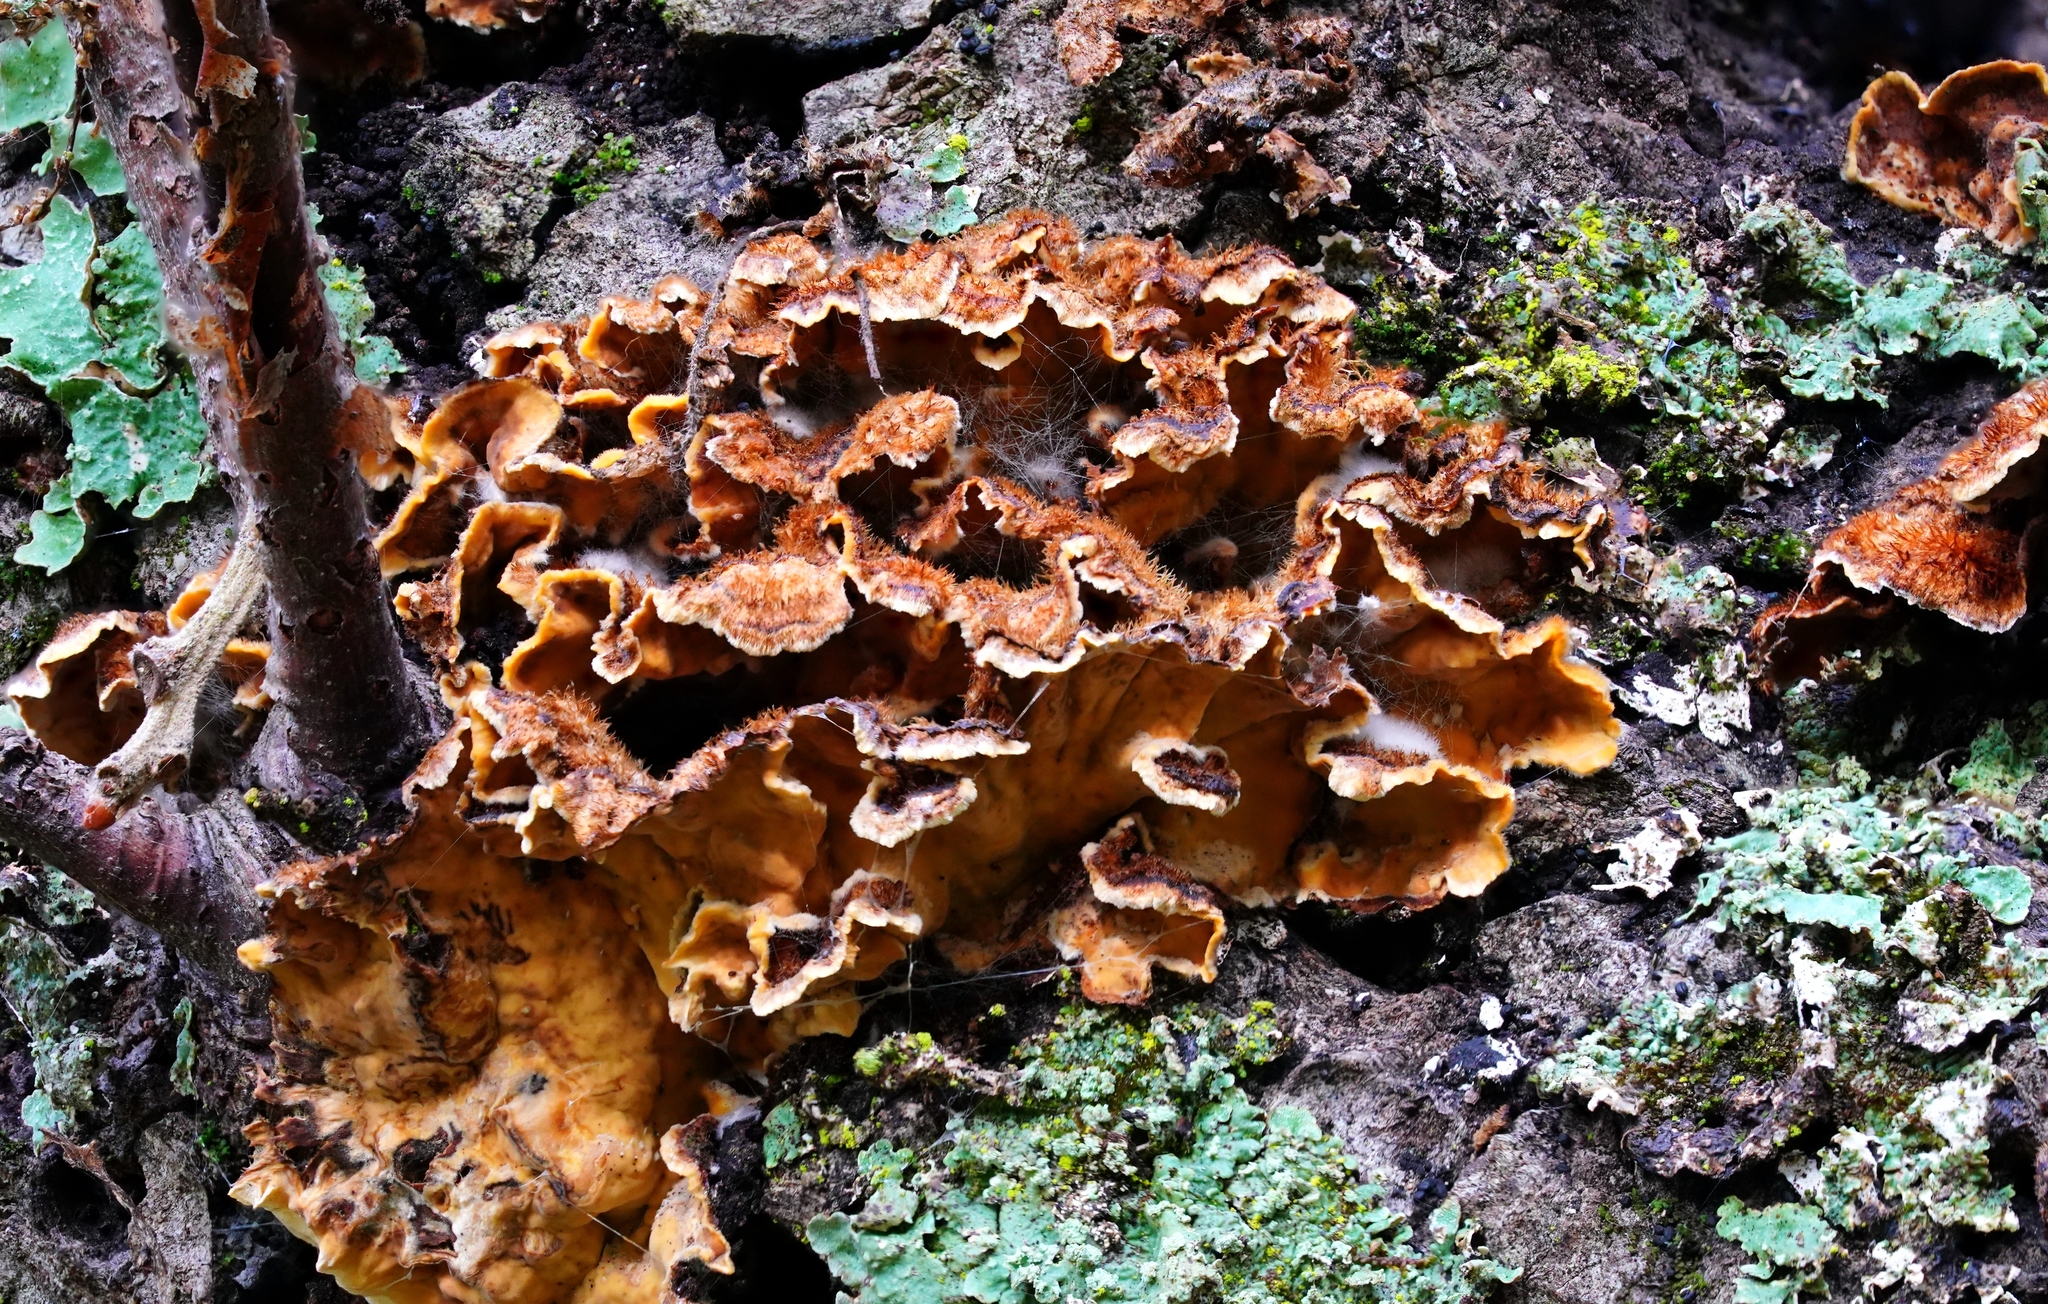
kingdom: Fungi
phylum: Basidiomycota
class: Agaricomycetes
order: Russulales
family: Stereaceae
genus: Stereum
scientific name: Stereum hirsutum
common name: Hairy curtain crust
